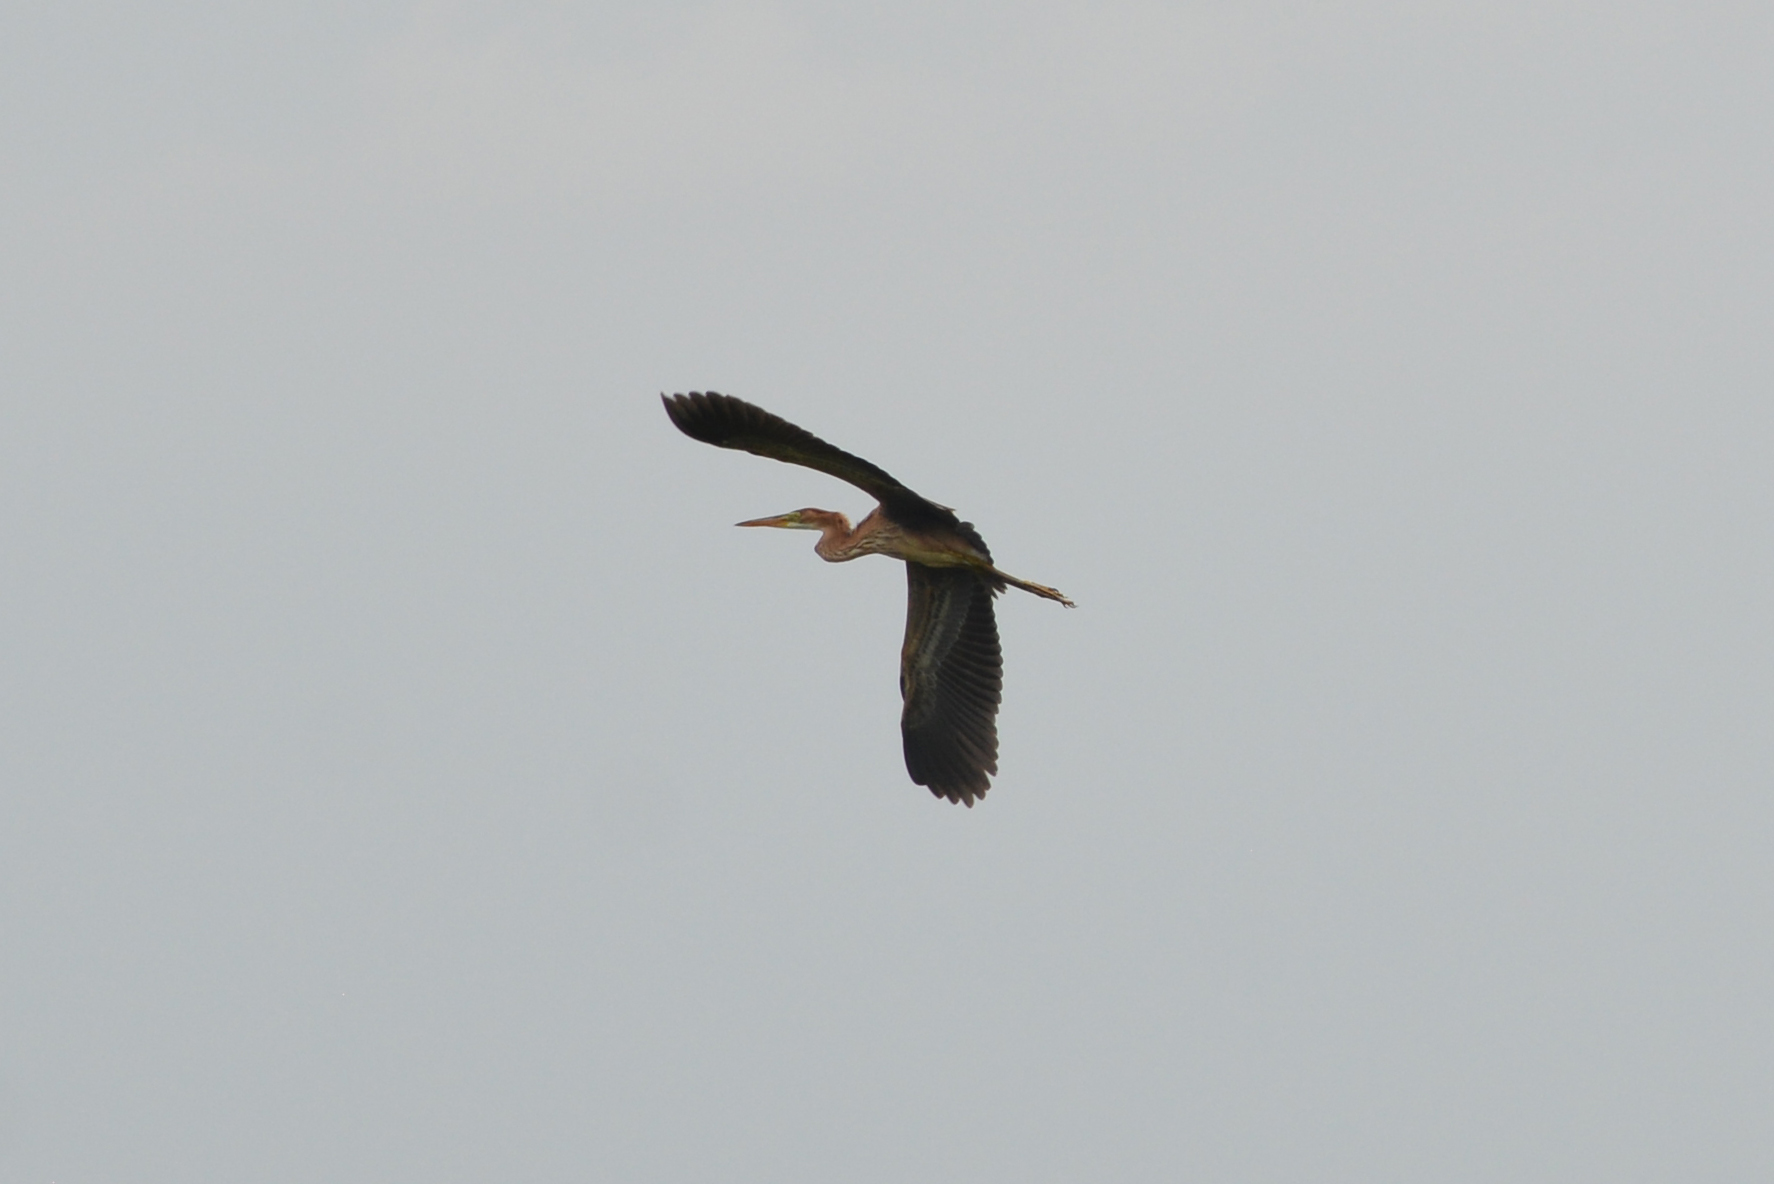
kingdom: Animalia
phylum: Chordata
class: Aves
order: Pelecaniformes
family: Ardeidae
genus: Ardea
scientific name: Ardea purpurea
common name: Purple heron
